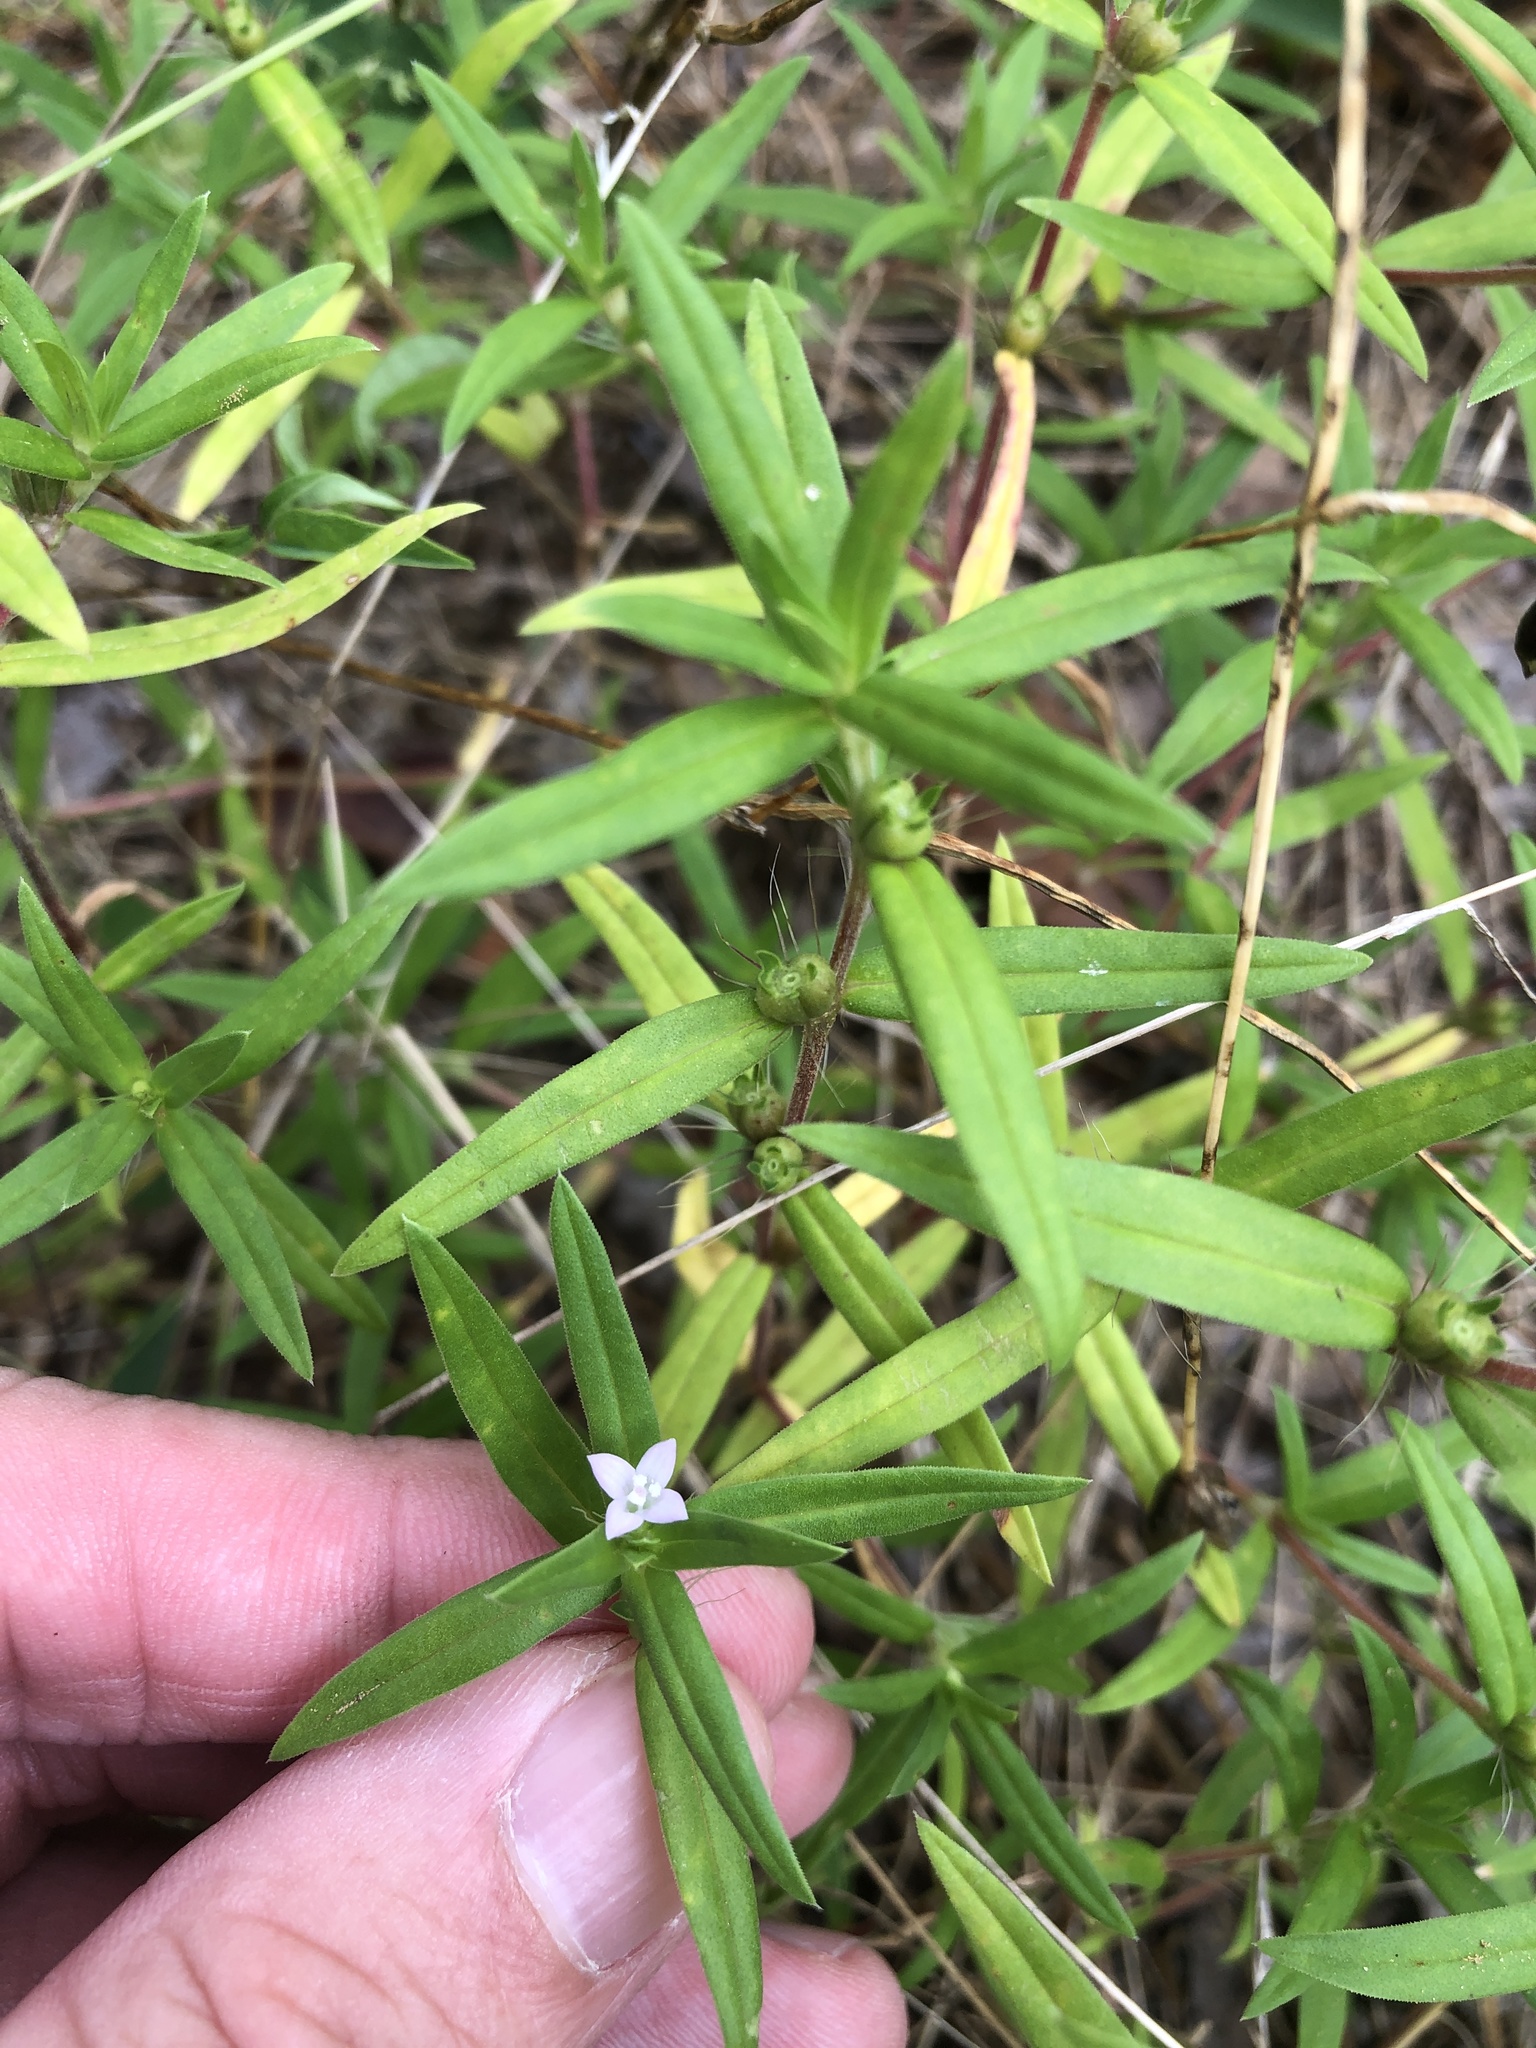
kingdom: Plantae
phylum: Tracheophyta
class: Magnoliopsida
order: Gentianales
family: Rubiaceae
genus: Hexasepalum
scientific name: Hexasepalum teres
